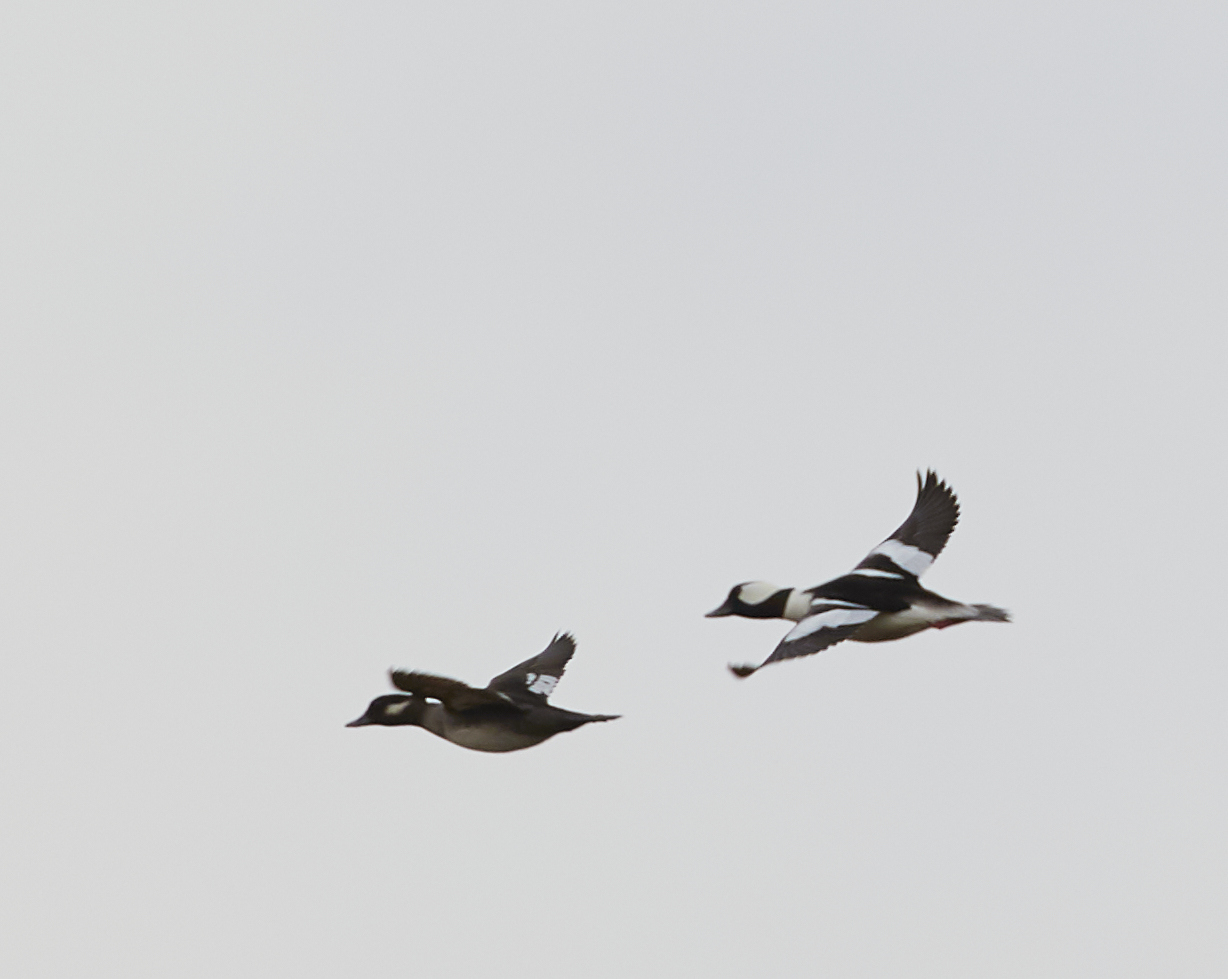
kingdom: Animalia
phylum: Chordata
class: Aves
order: Anseriformes
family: Anatidae
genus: Bucephala
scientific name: Bucephala albeola
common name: Bufflehead
